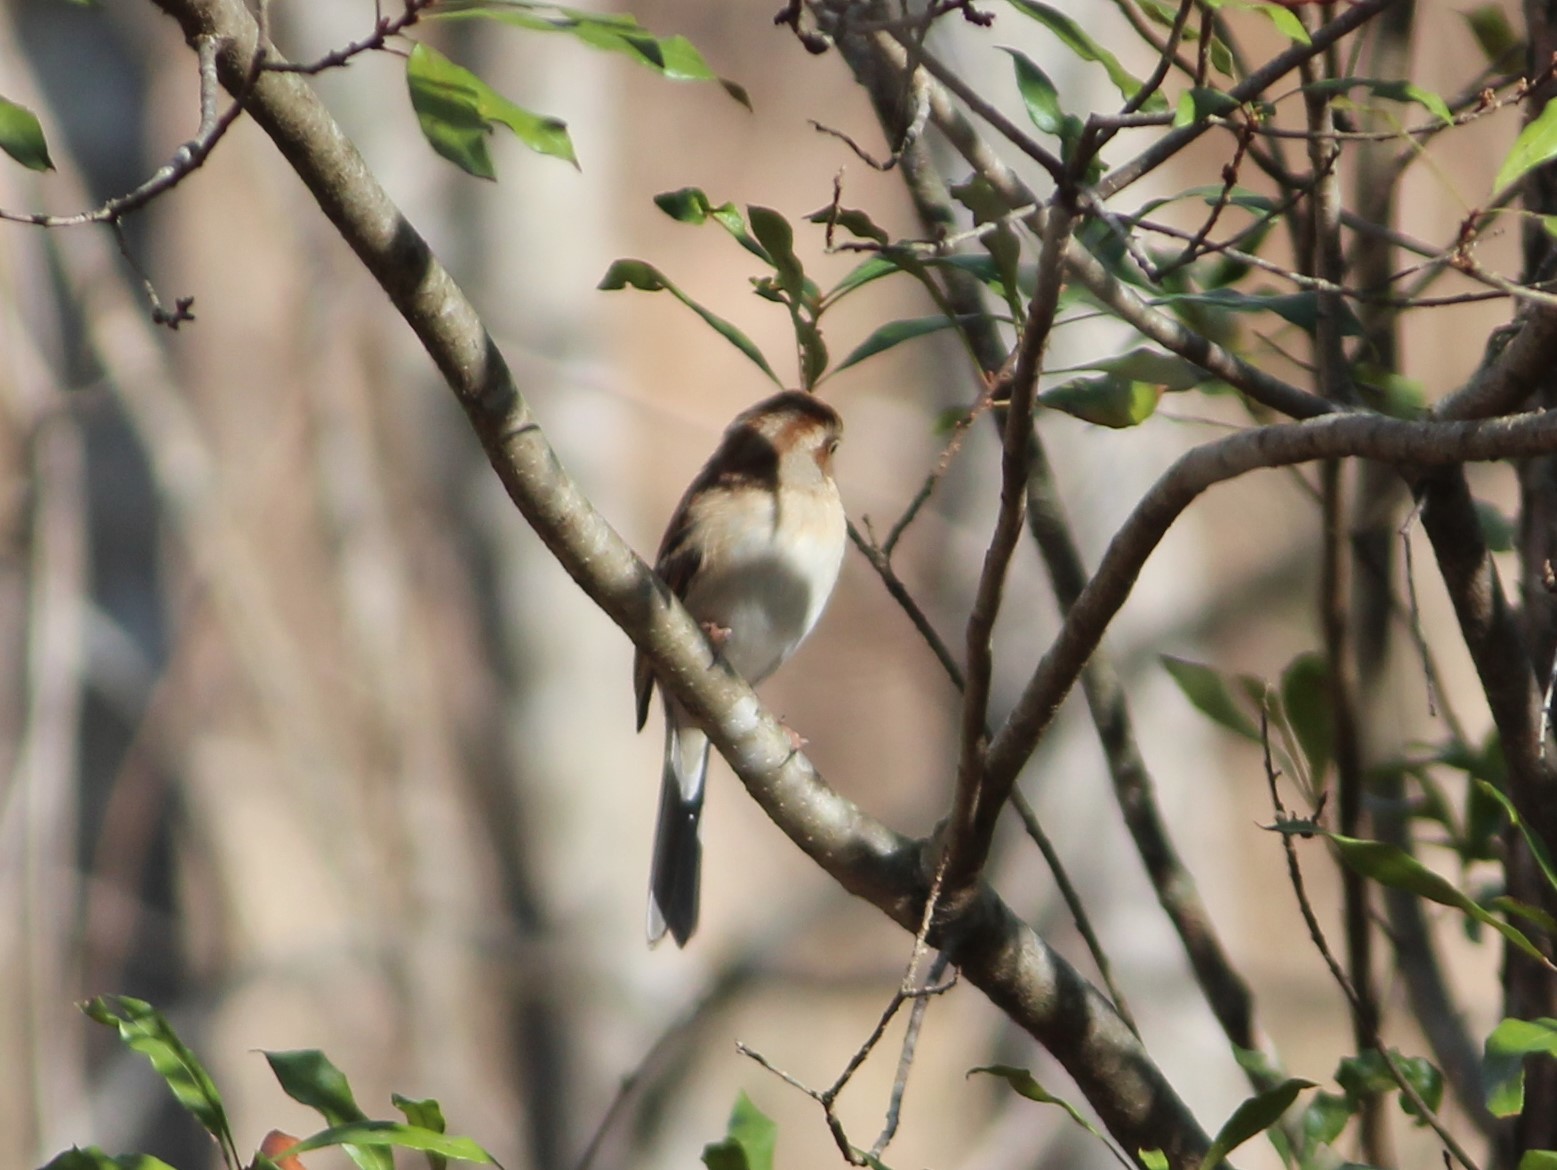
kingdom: Animalia
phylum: Chordata
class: Aves
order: Passeriformes
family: Passerellidae
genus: Spizella
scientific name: Spizella pusilla
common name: Field sparrow
